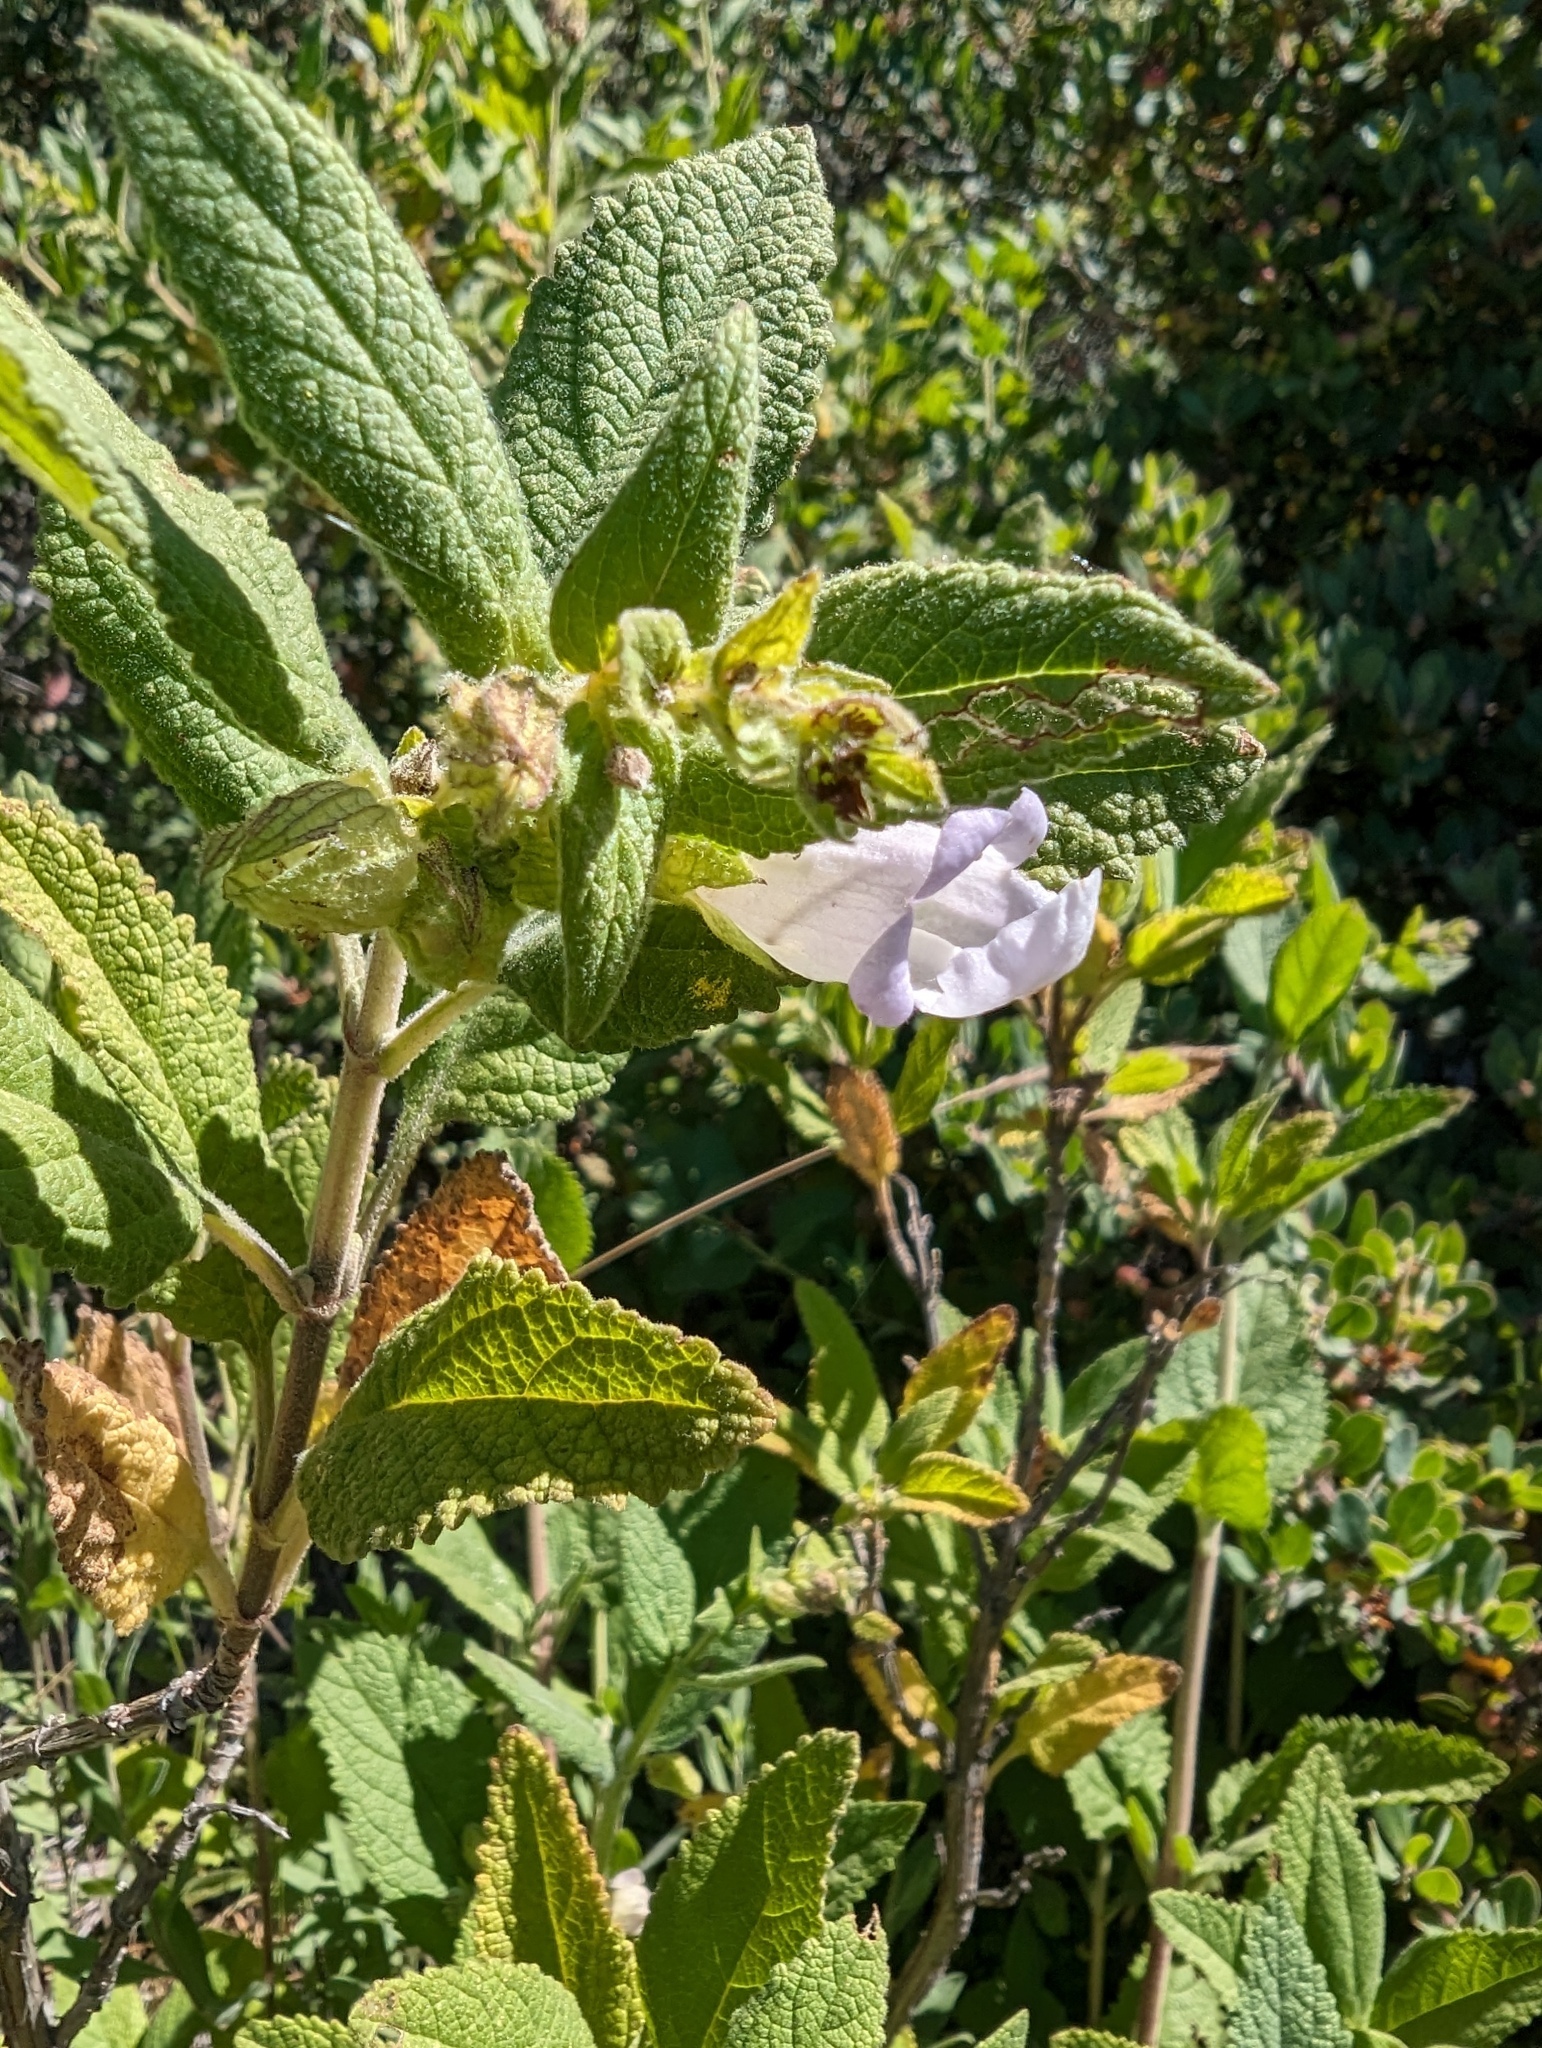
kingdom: Plantae
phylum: Tracheophyta
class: Magnoliopsida
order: Lamiales
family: Lamiaceae
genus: Lepechinia
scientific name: Lepechinia calycina
